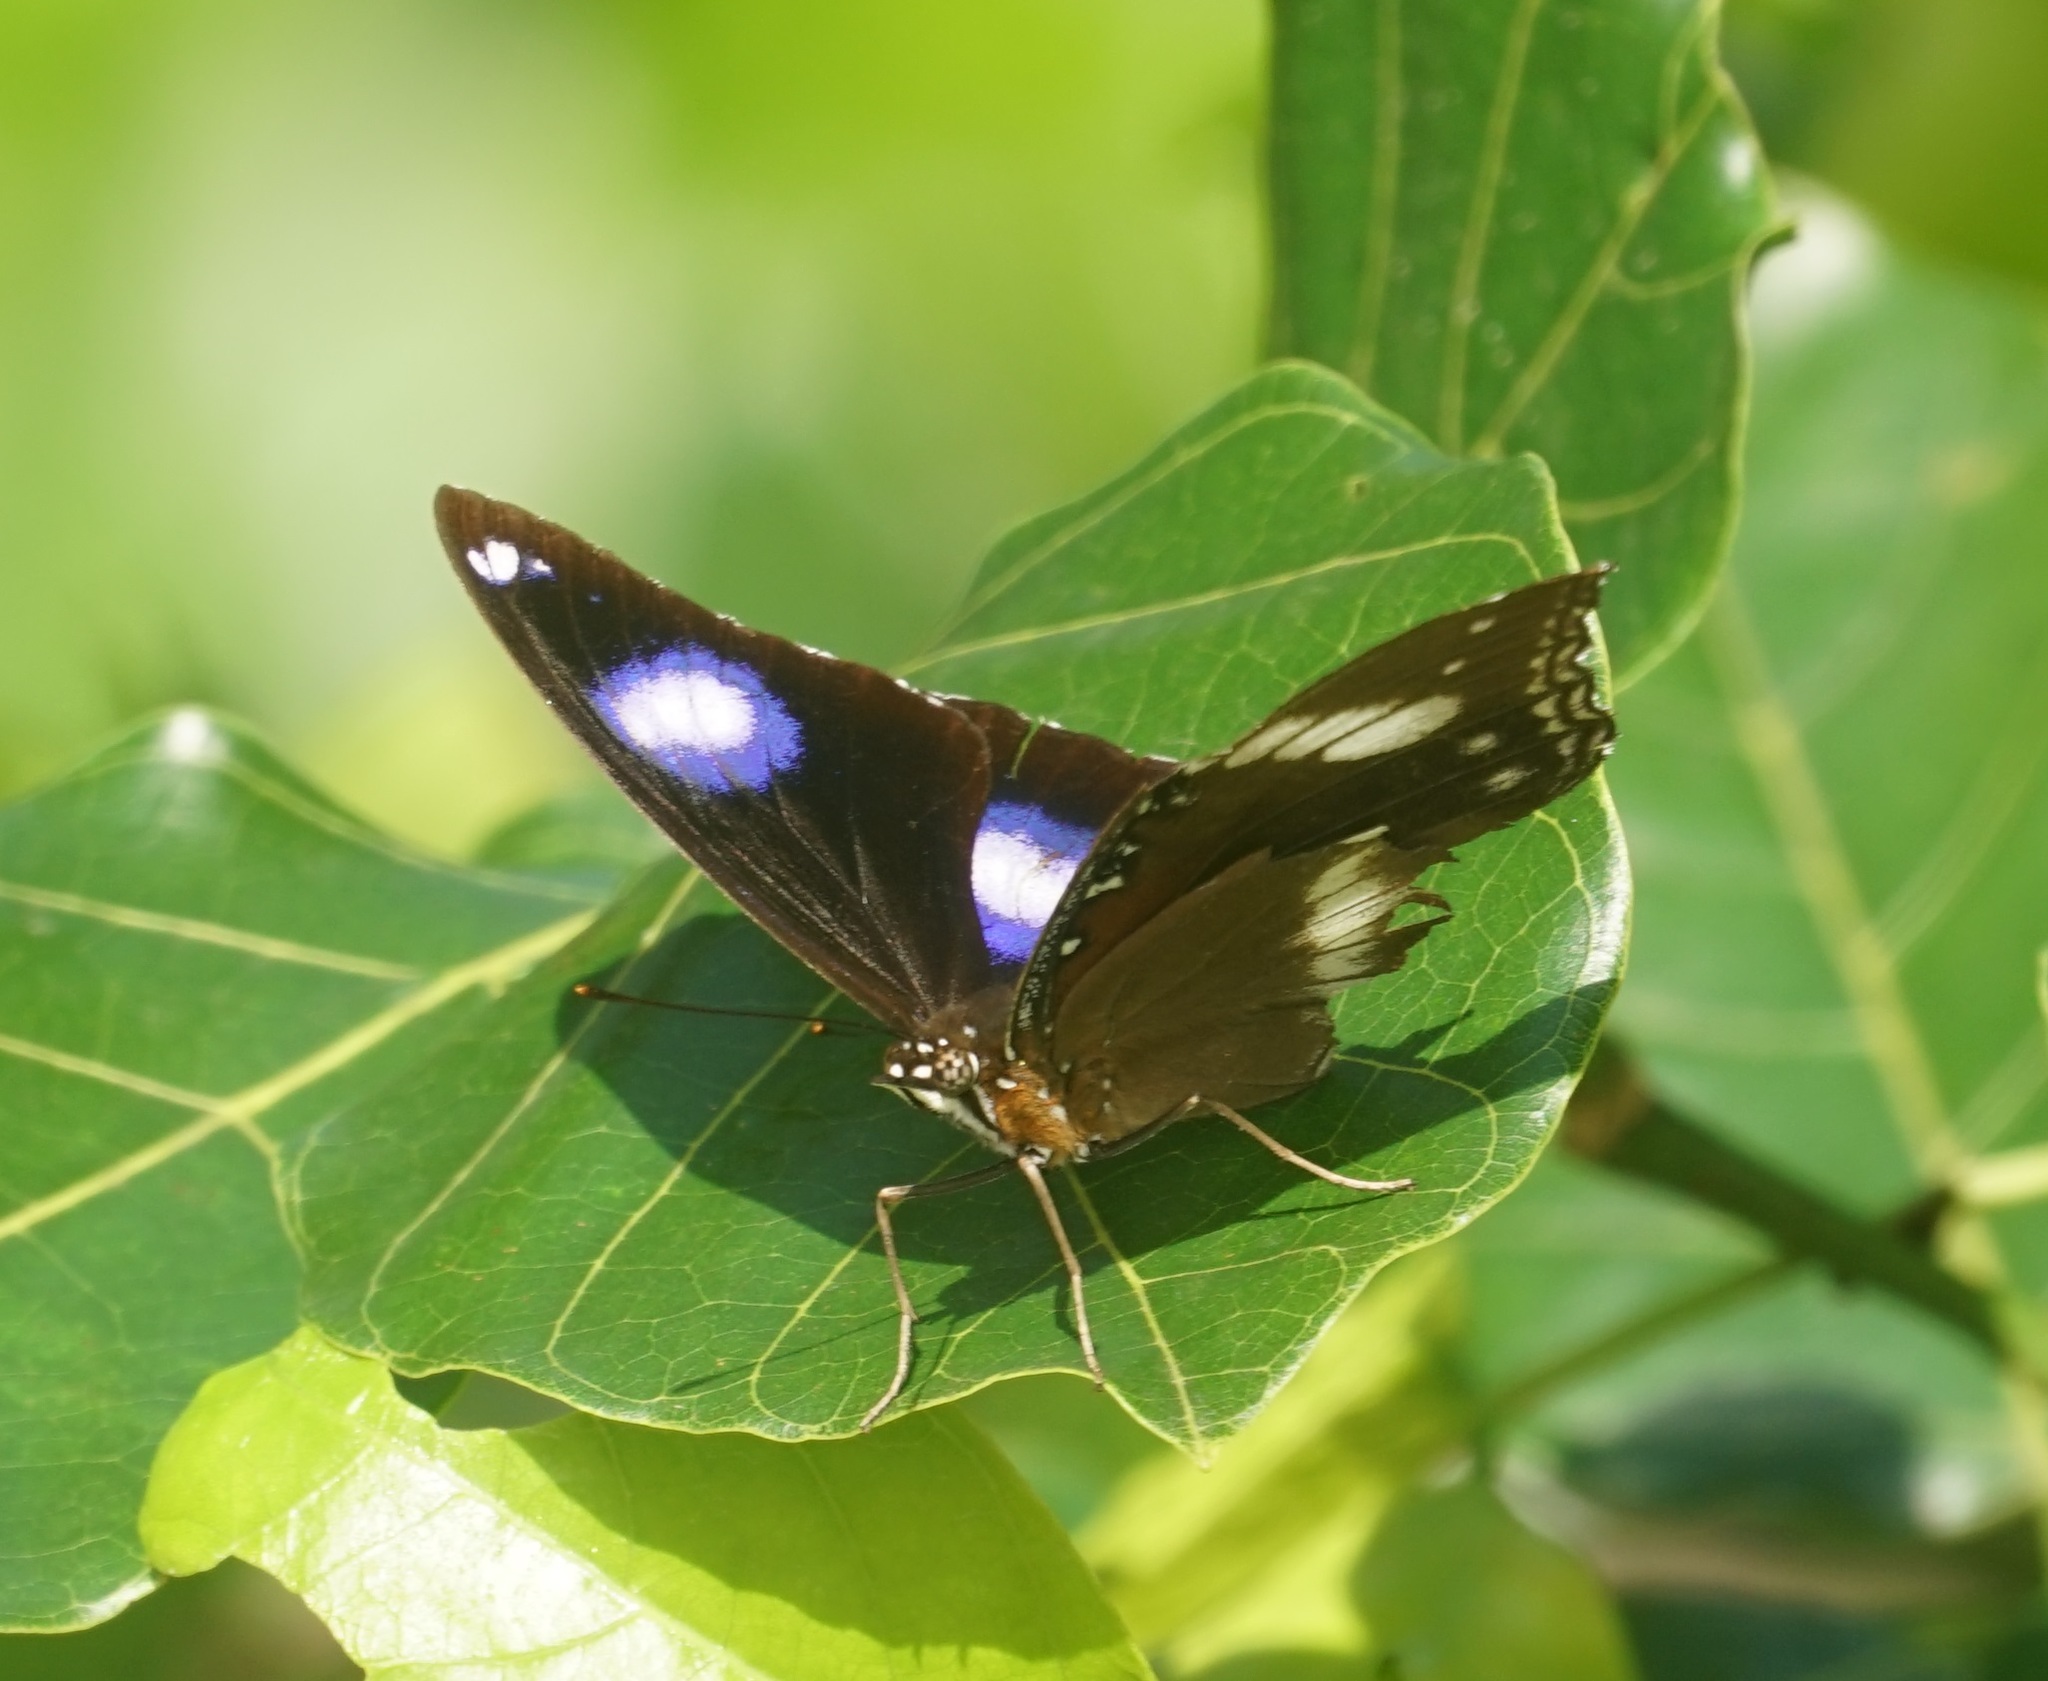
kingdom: Animalia
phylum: Arthropoda
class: Insecta
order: Lepidoptera
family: Nymphalidae
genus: Hypolimnas
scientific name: Hypolimnas bolina
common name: Great eggfly
